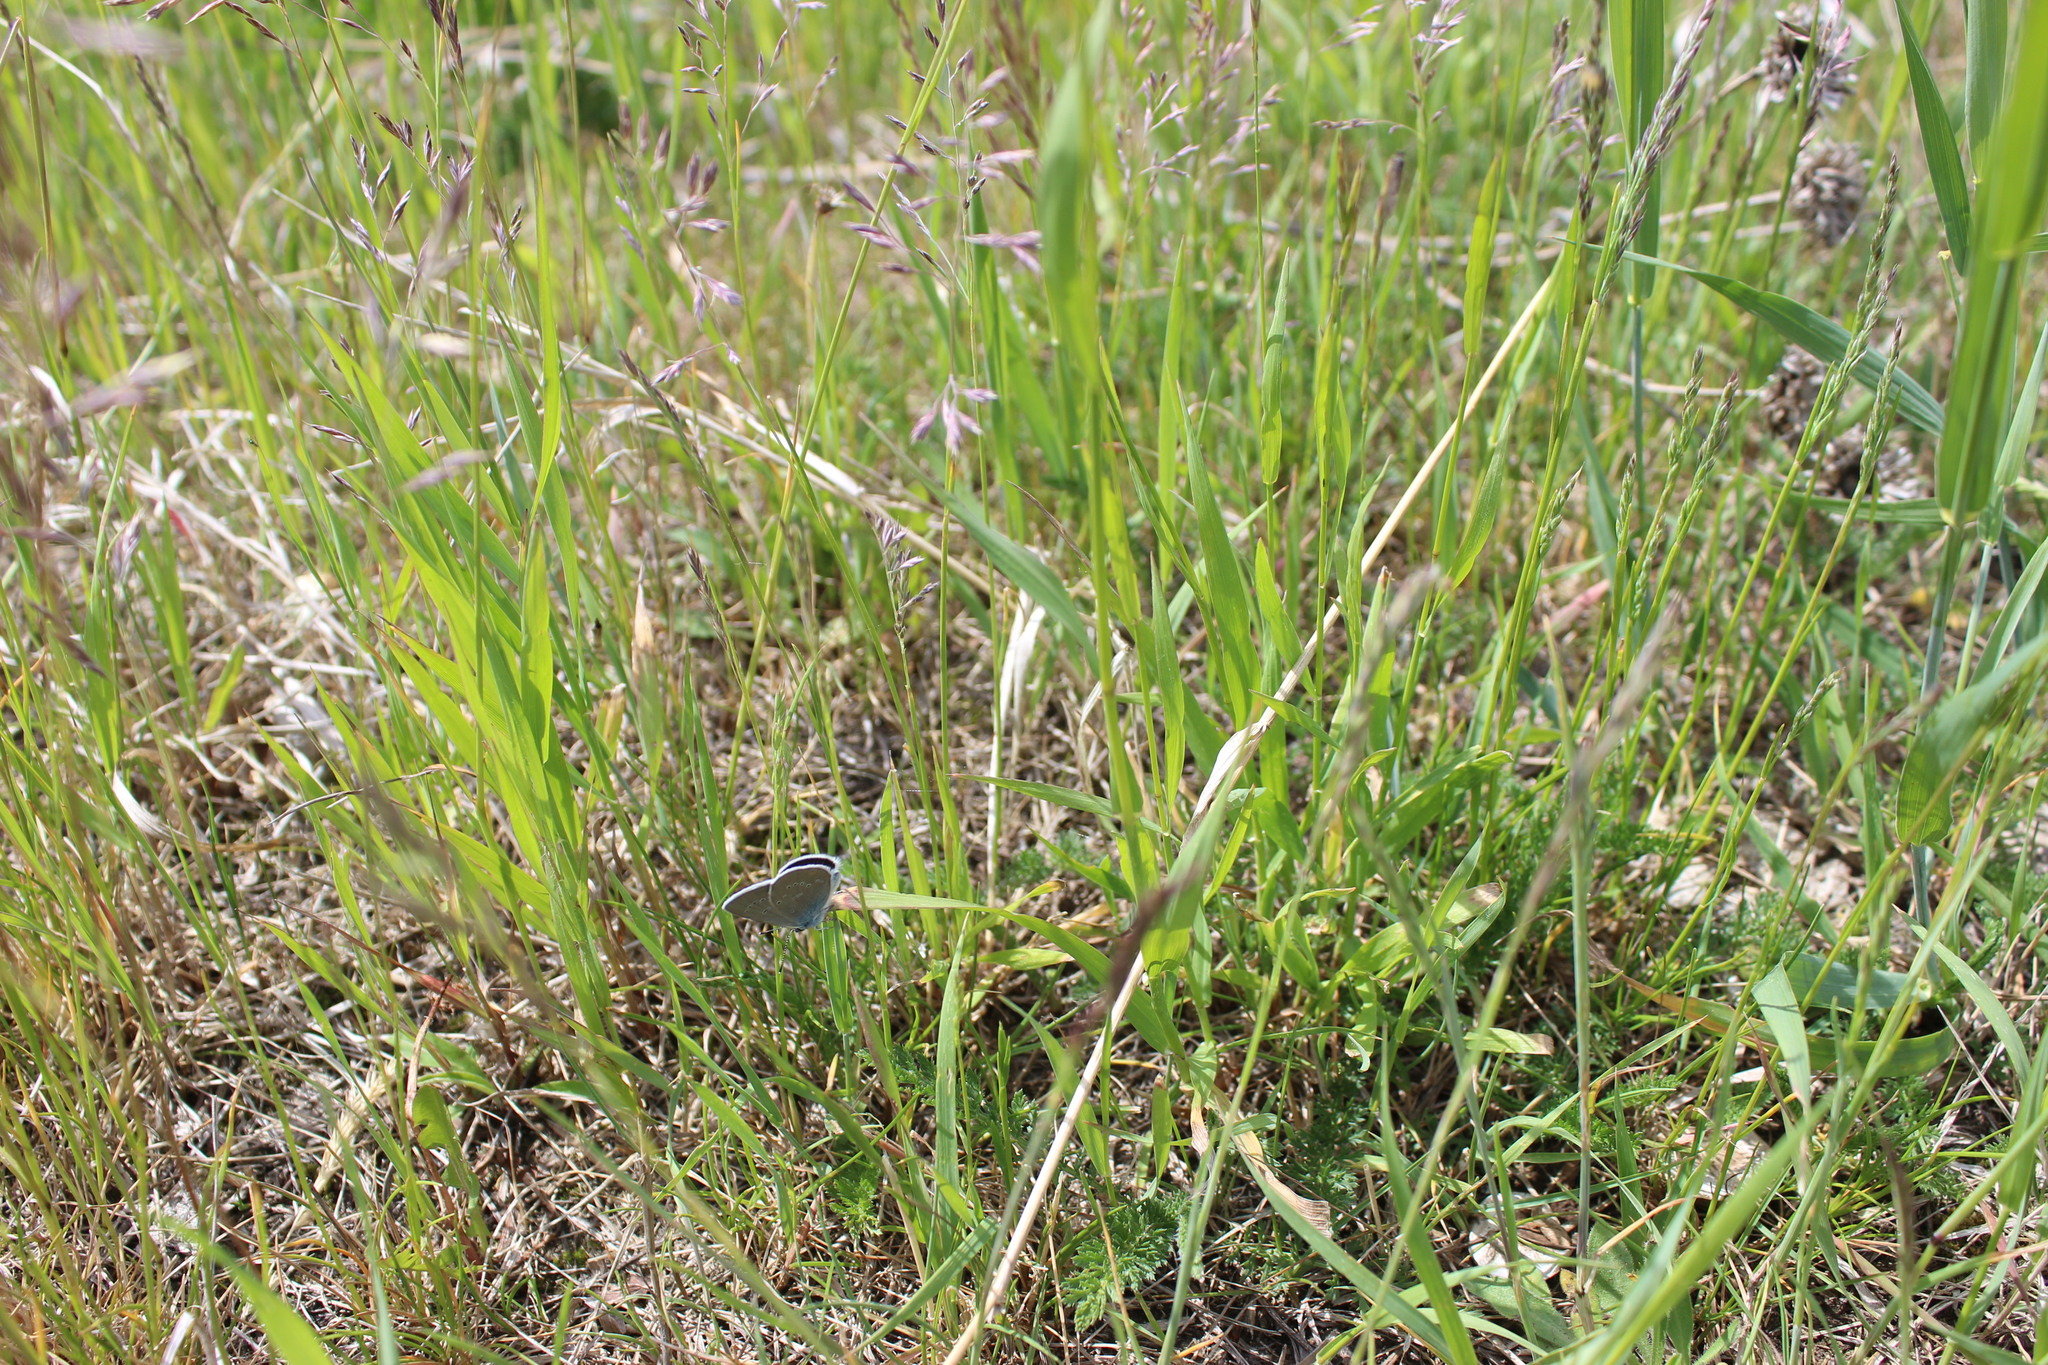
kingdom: Animalia
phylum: Arthropoda
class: Insecta
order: Lepidoptera
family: Lycaenidae
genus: Cyaniris
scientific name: Cyaniris semiargus
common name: Mazarine blue
